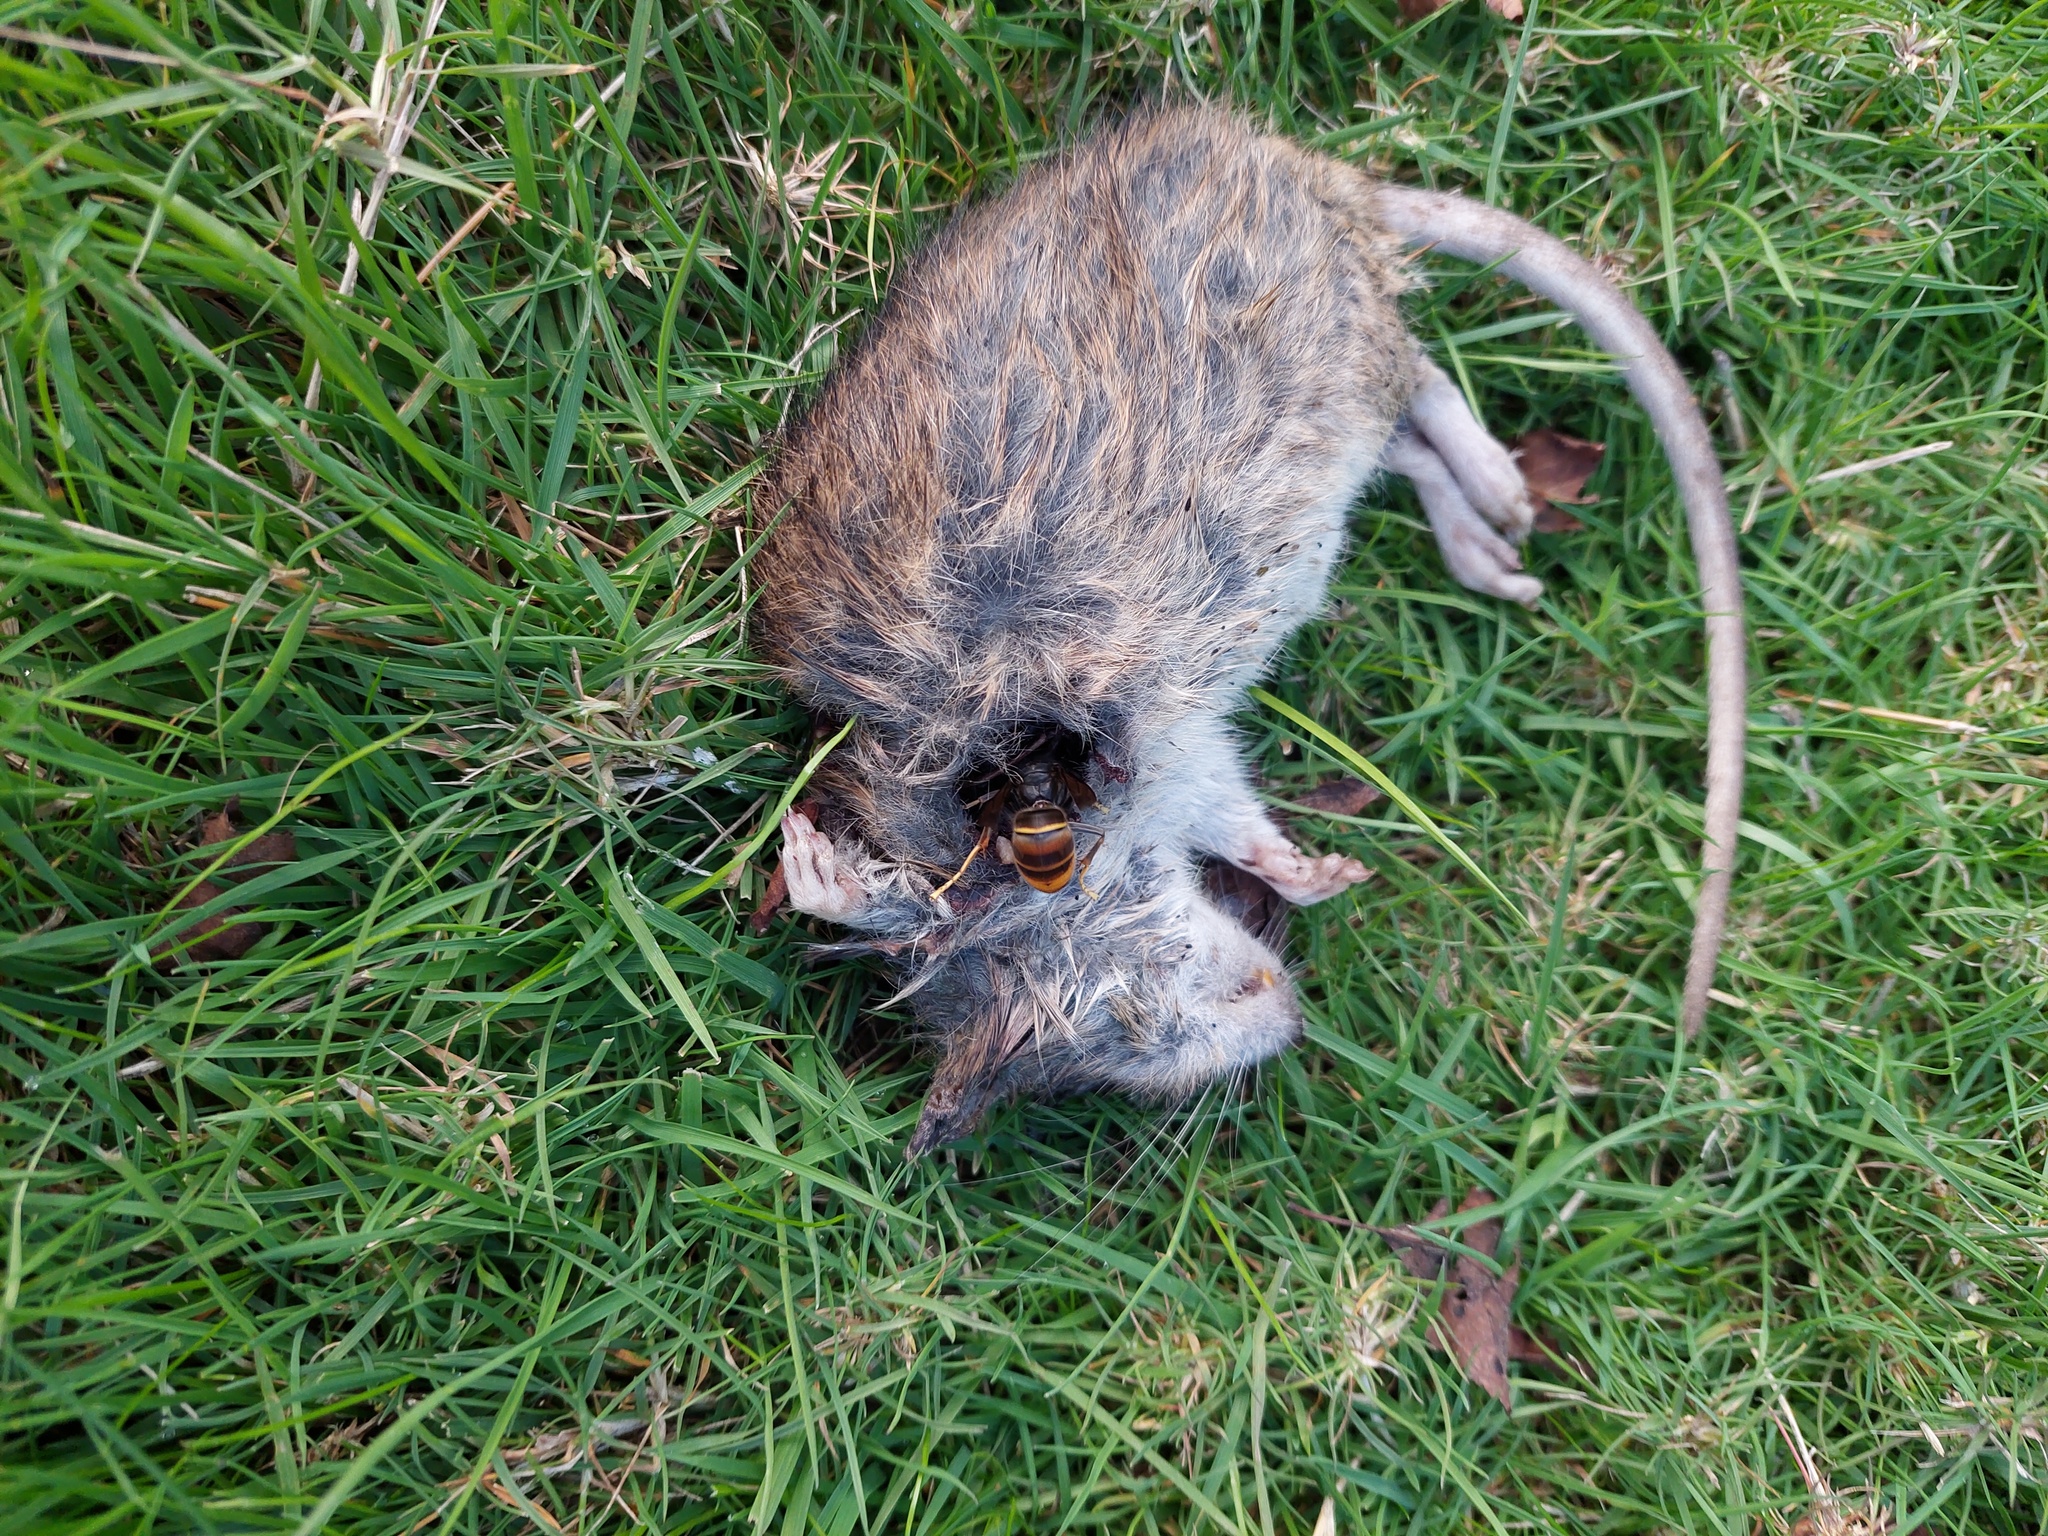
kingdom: Animalia
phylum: Arthropoda
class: Insecta
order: Hymenoptera
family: Vespidae
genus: Vespa
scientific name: Vespa velutina
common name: Asian hornet
